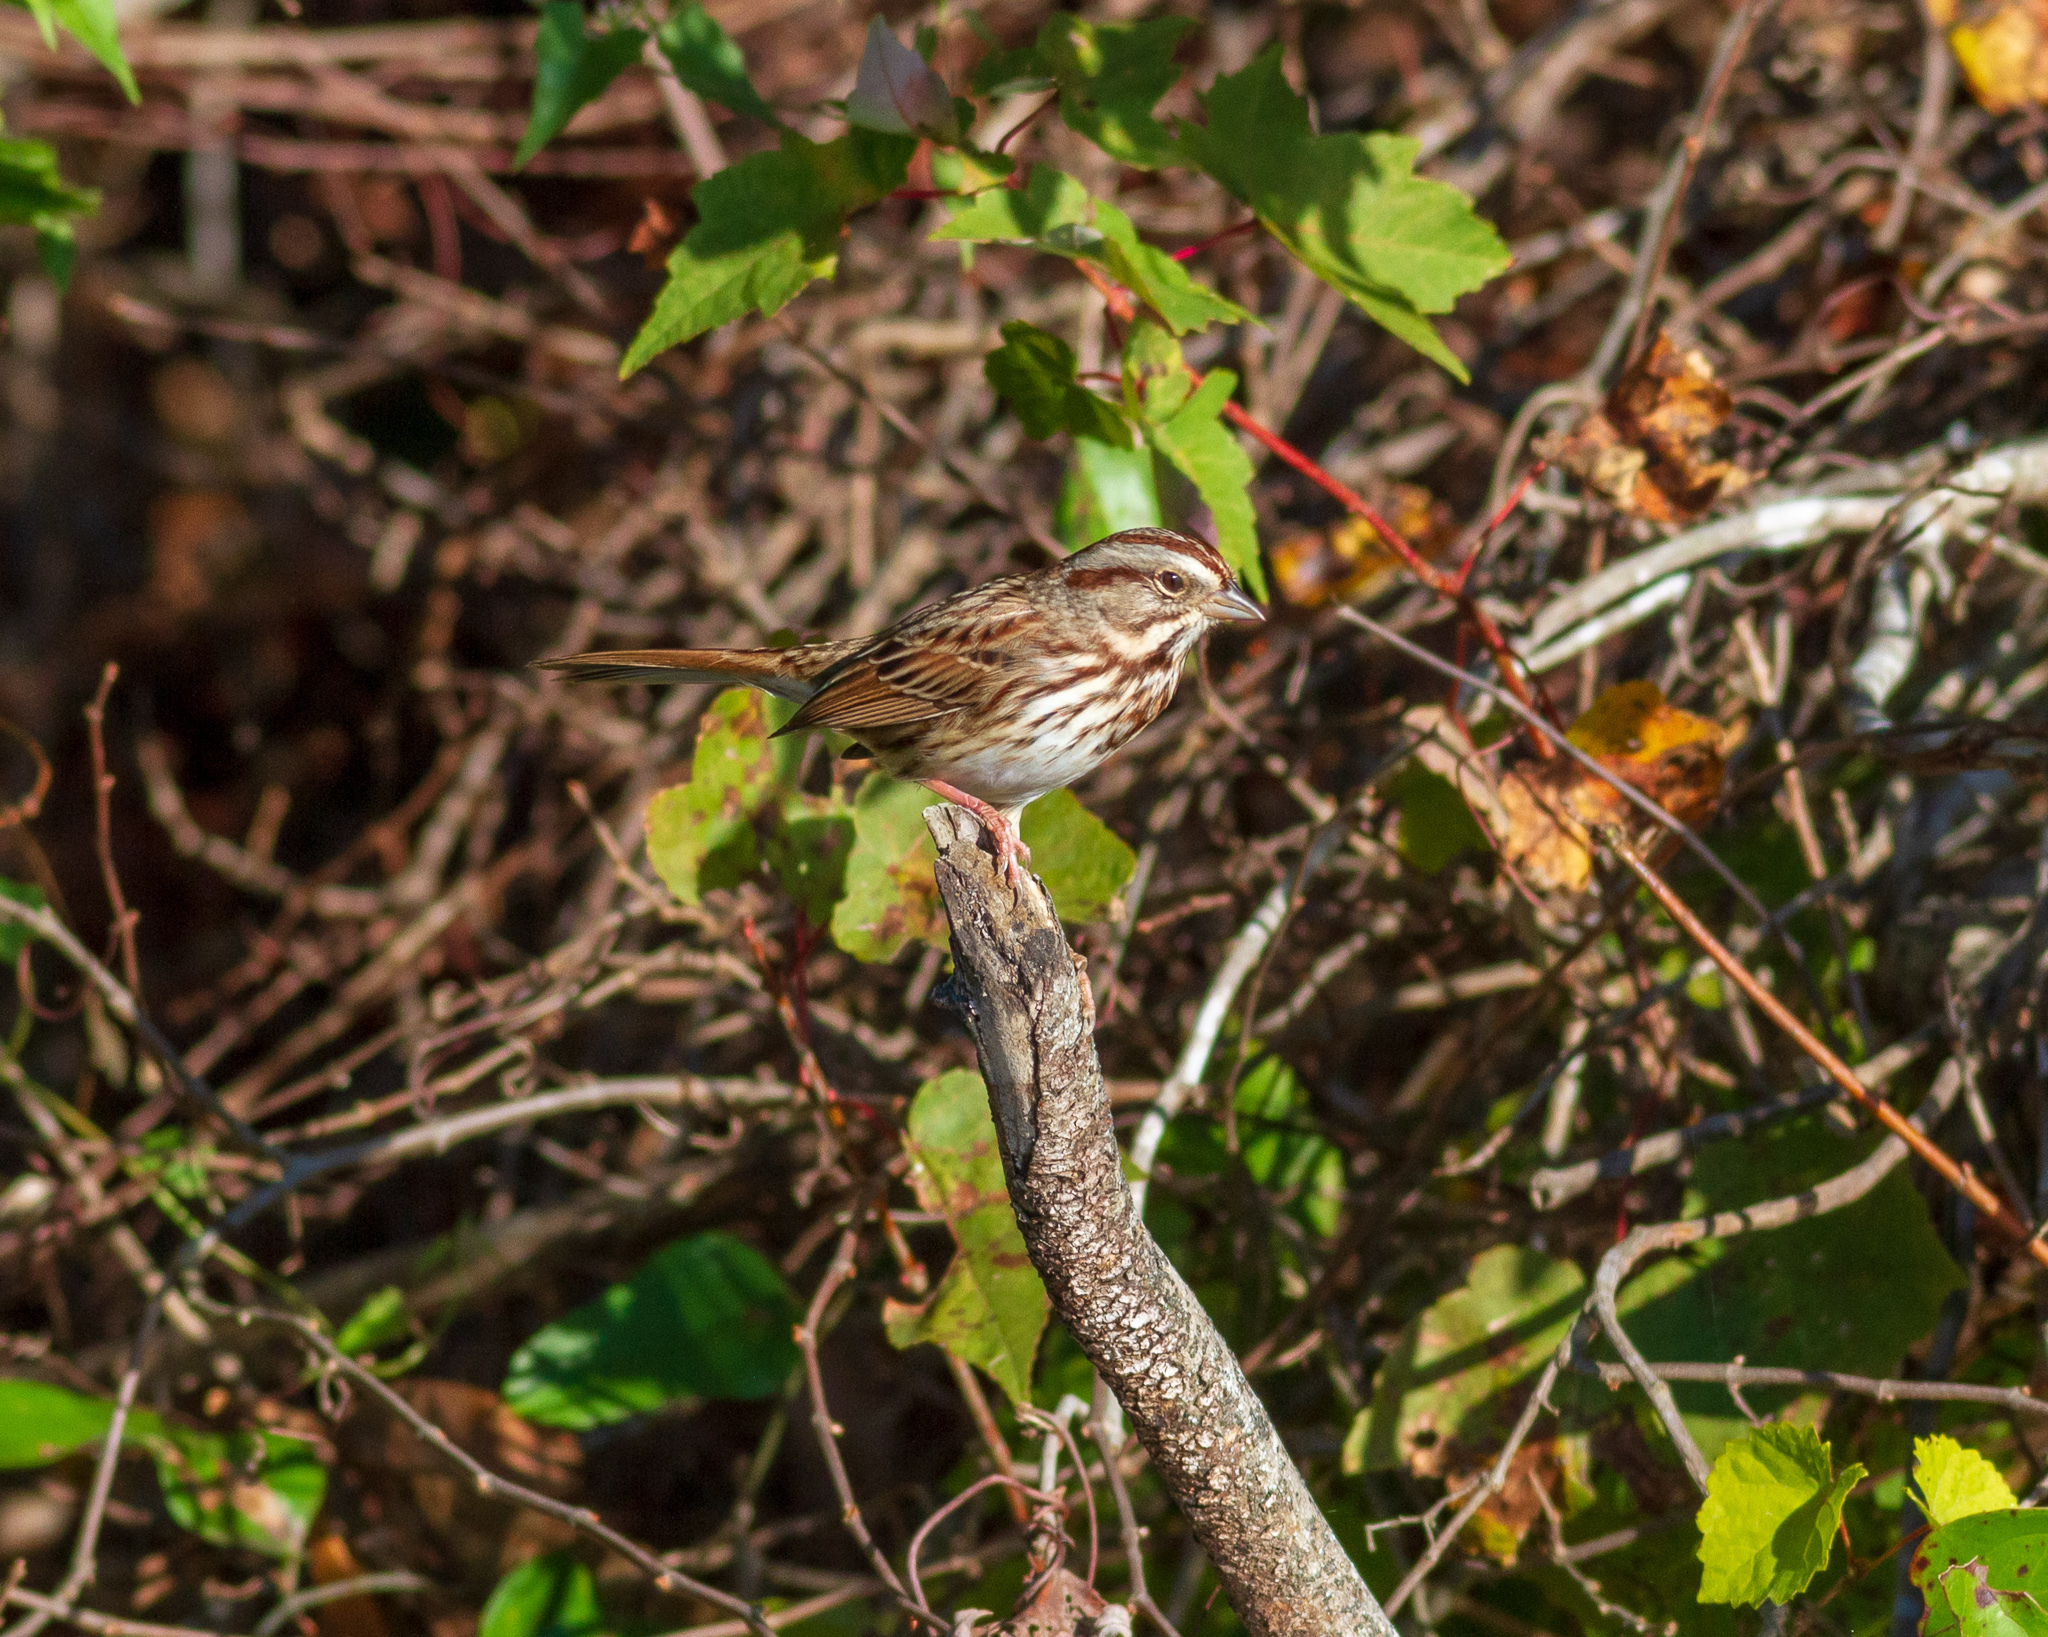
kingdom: Animalia
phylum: Chordata
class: Aves
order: Passeriformes
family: Passerellidae
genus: Melospiza
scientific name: Melospiza melodia
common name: Song sparrow
